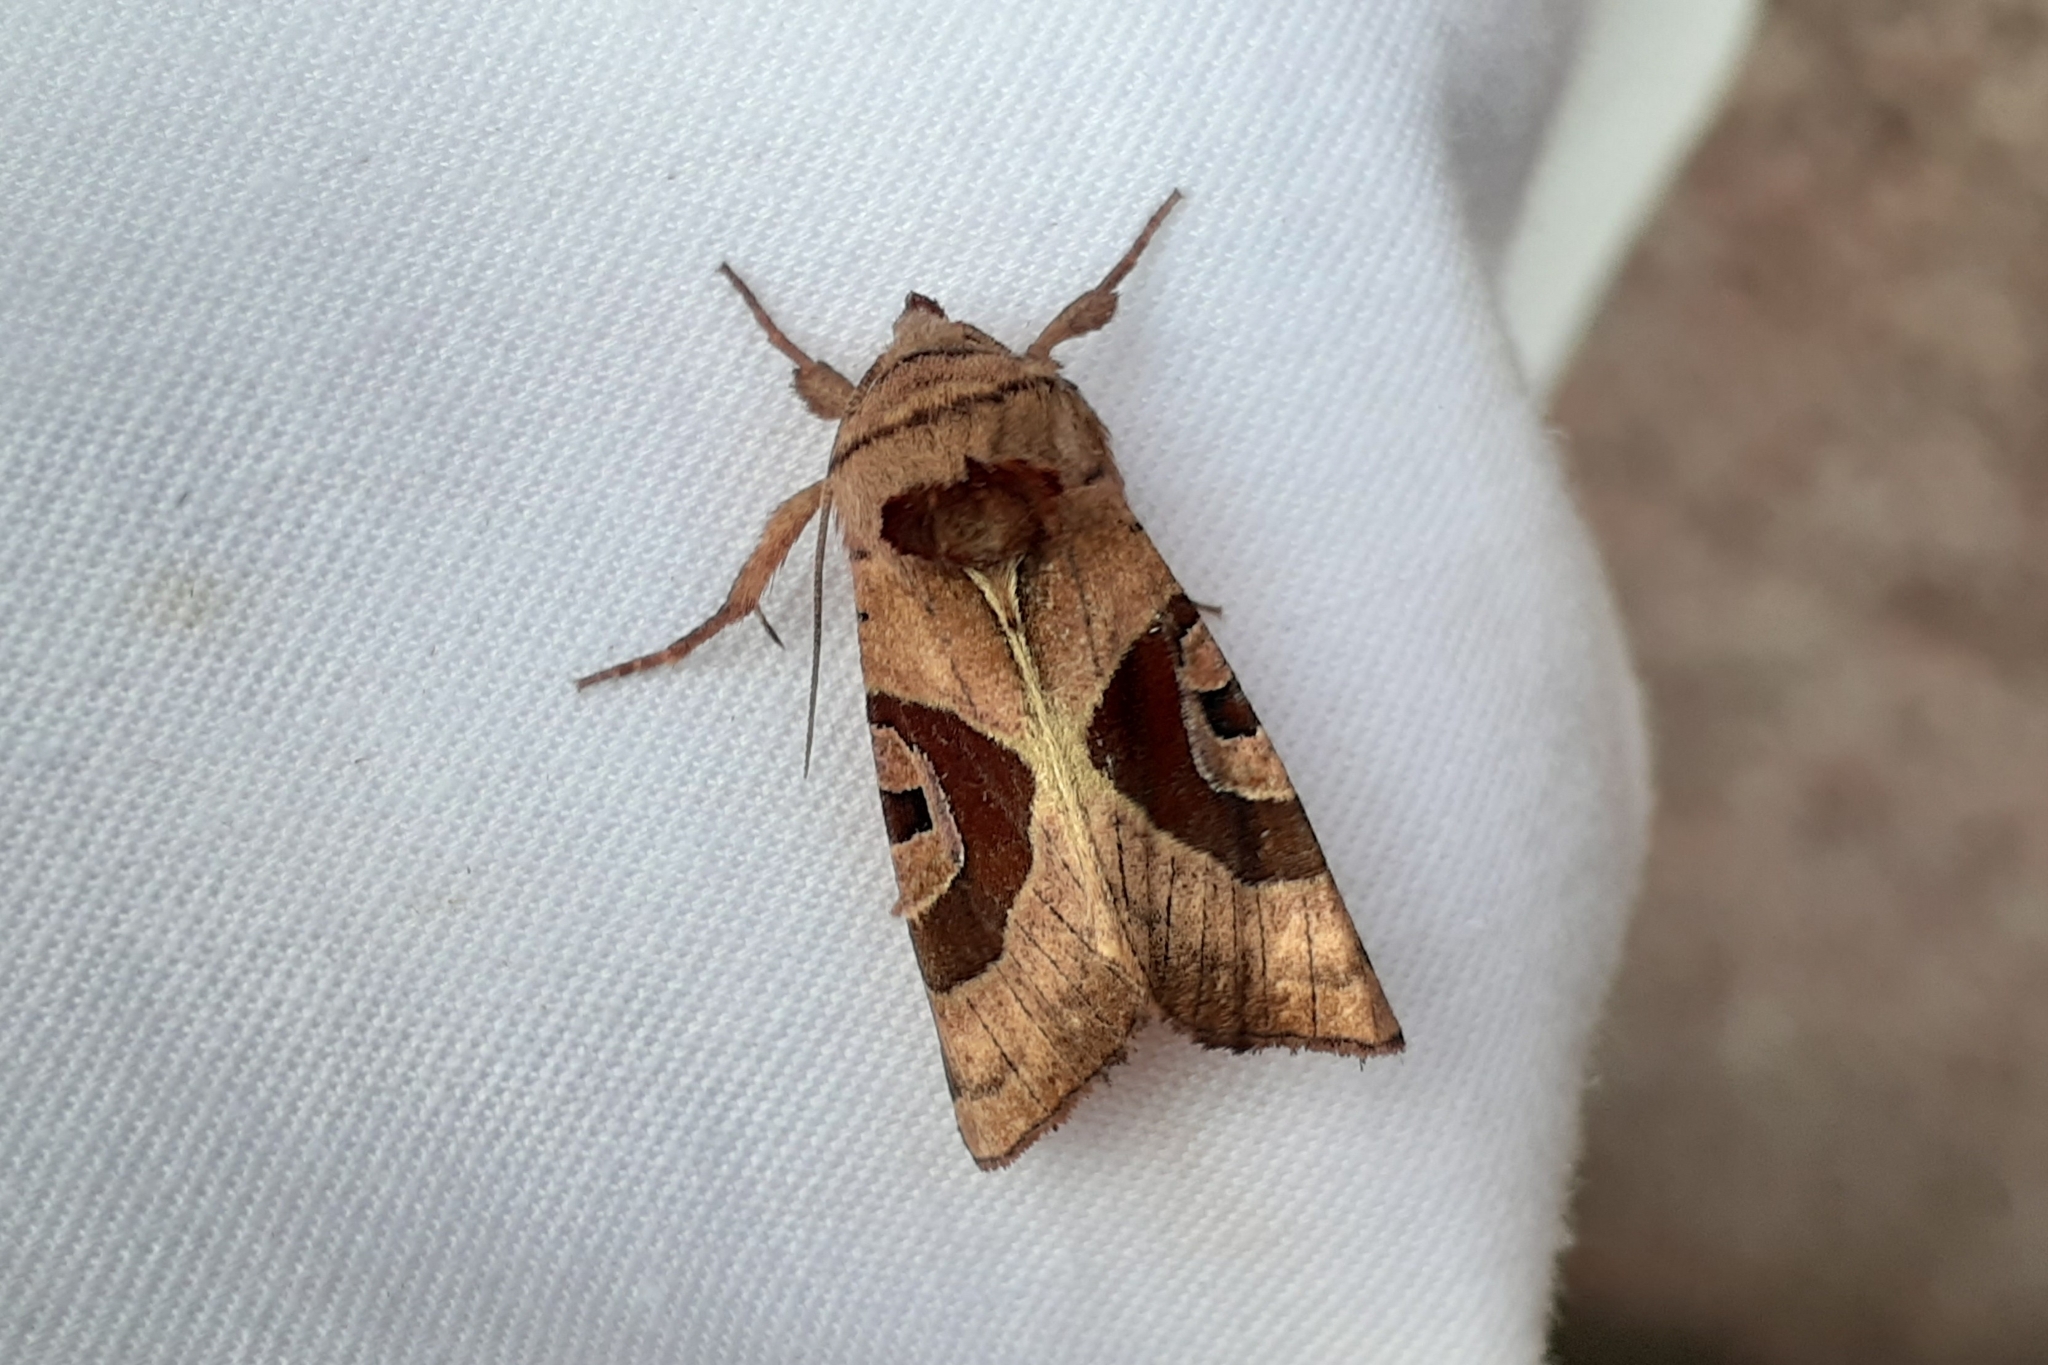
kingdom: Animalia
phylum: Arthropoda
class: Insecta
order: Lepidoptera
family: Noctuidae
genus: Conservula
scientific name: Conservula anodonta
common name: Sharp angle shades
